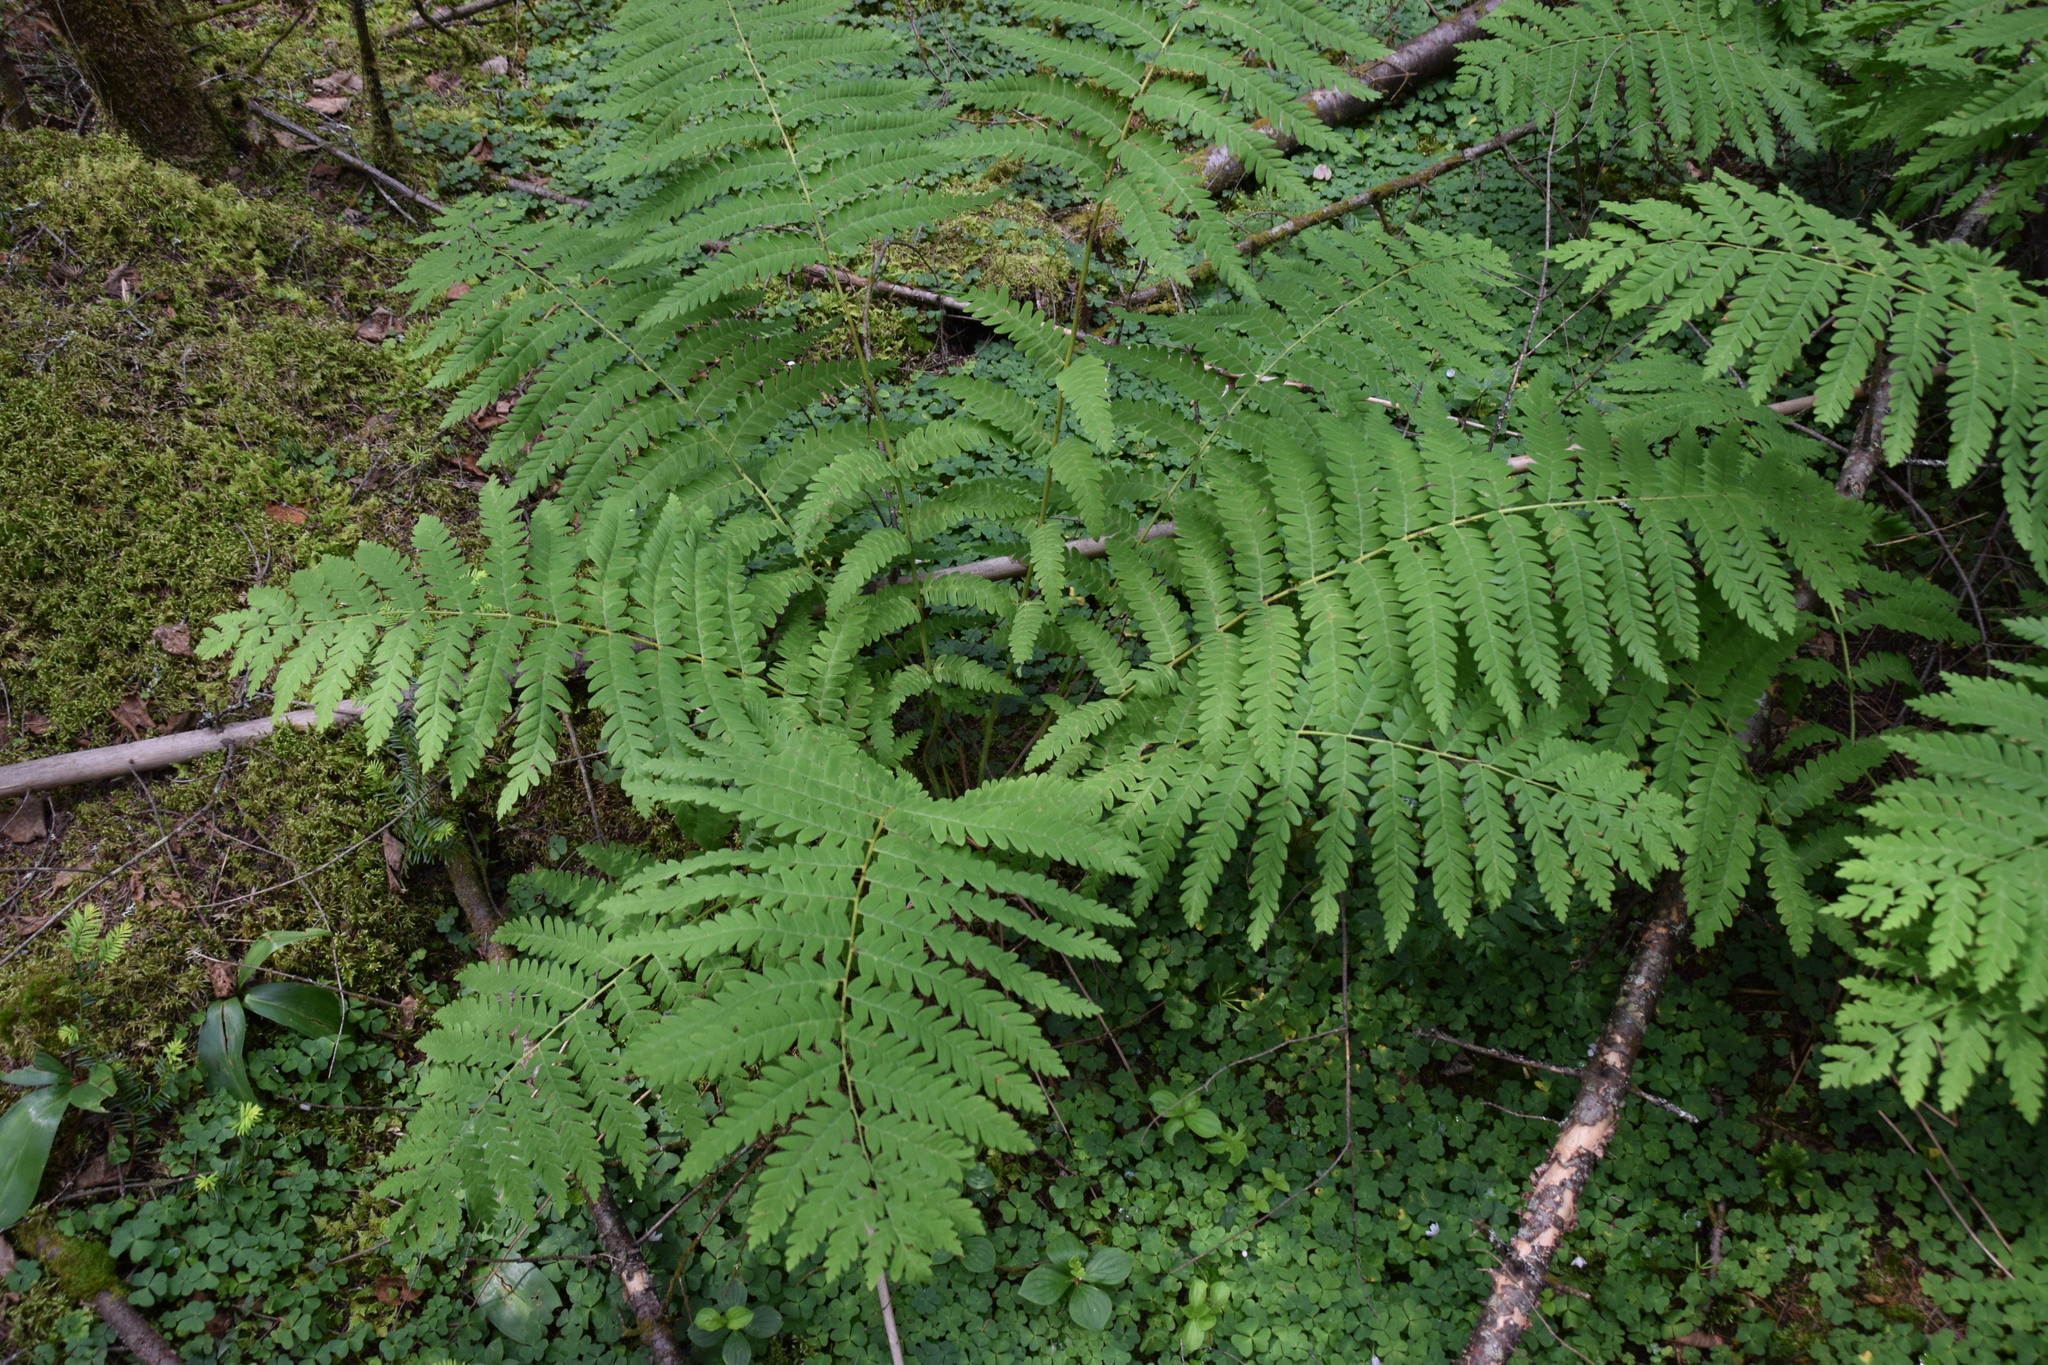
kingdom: Plantae
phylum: Tracheophyta
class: Polypodiopsida
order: Osmundales
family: Osmundaceae
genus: Claytosmunda
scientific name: Claytosmunda claytoniana
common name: Clayton's fern
